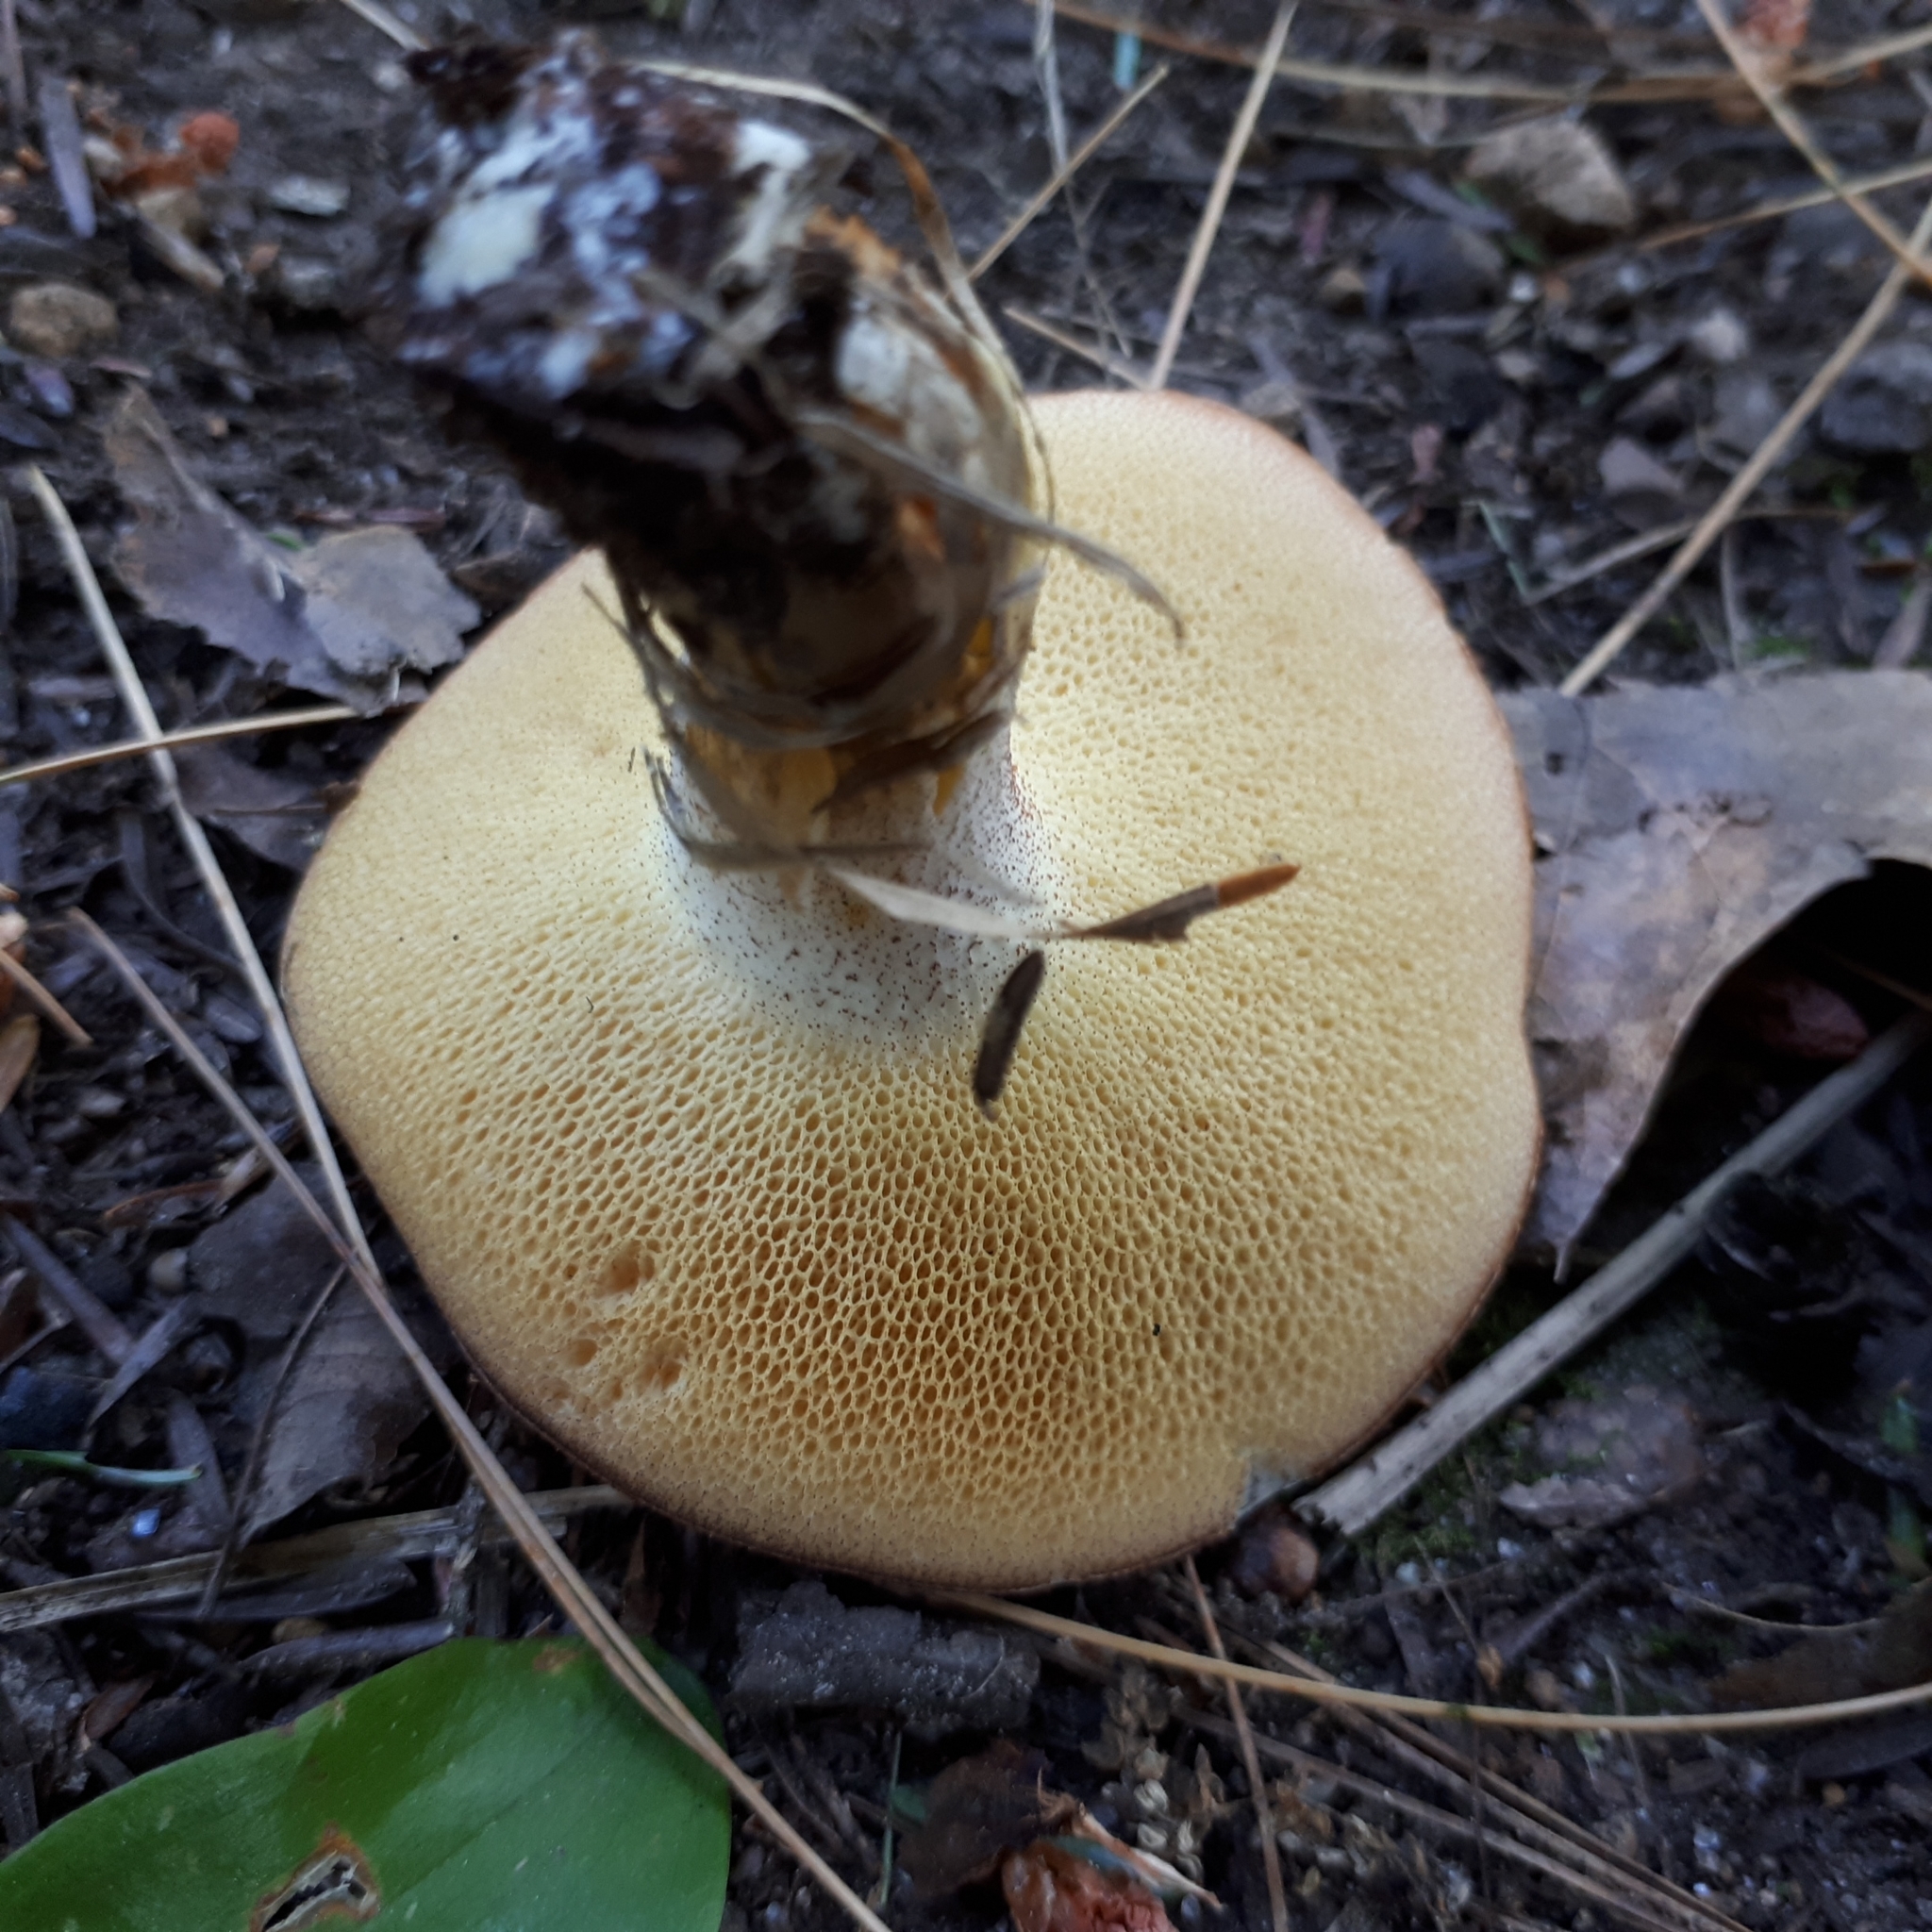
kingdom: Fungi
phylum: Basidiomycota
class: Agaricomycetes
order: Boletales
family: Suillaceae
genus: Suillus
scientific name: Suillus granulatus
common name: Weeping bolete
